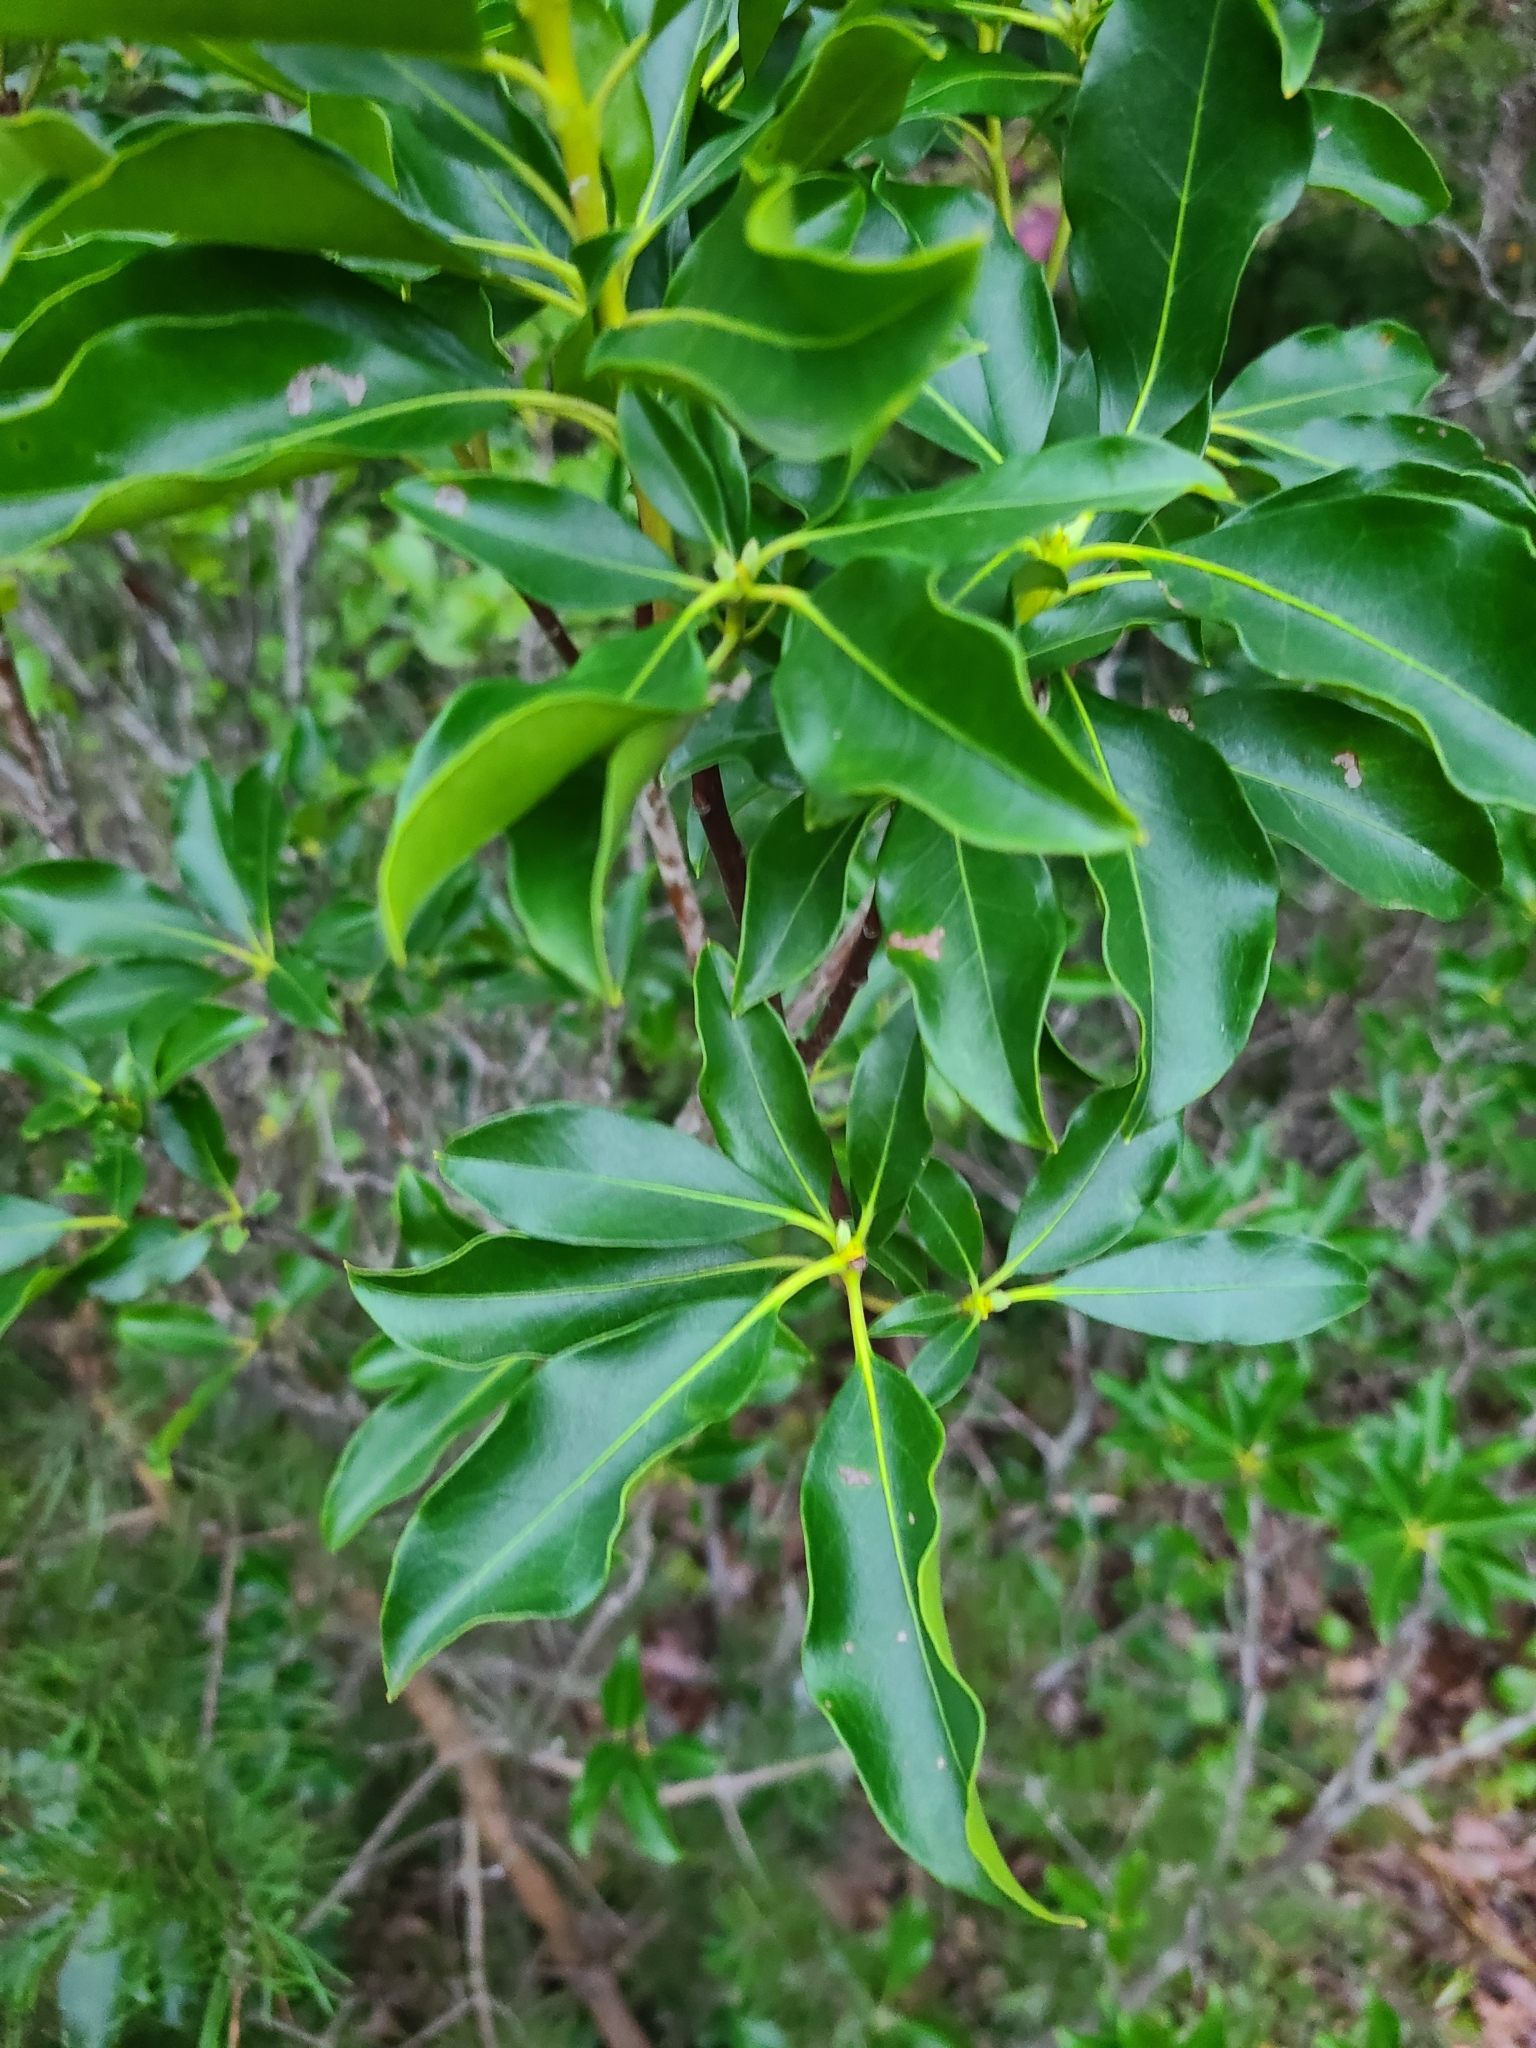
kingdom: Plantae
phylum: Tracheophyta
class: Magnoliopsida
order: Ericales
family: Ericaceae
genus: Kalmia
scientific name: Kalmia latifolia
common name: Mountain-laurel
